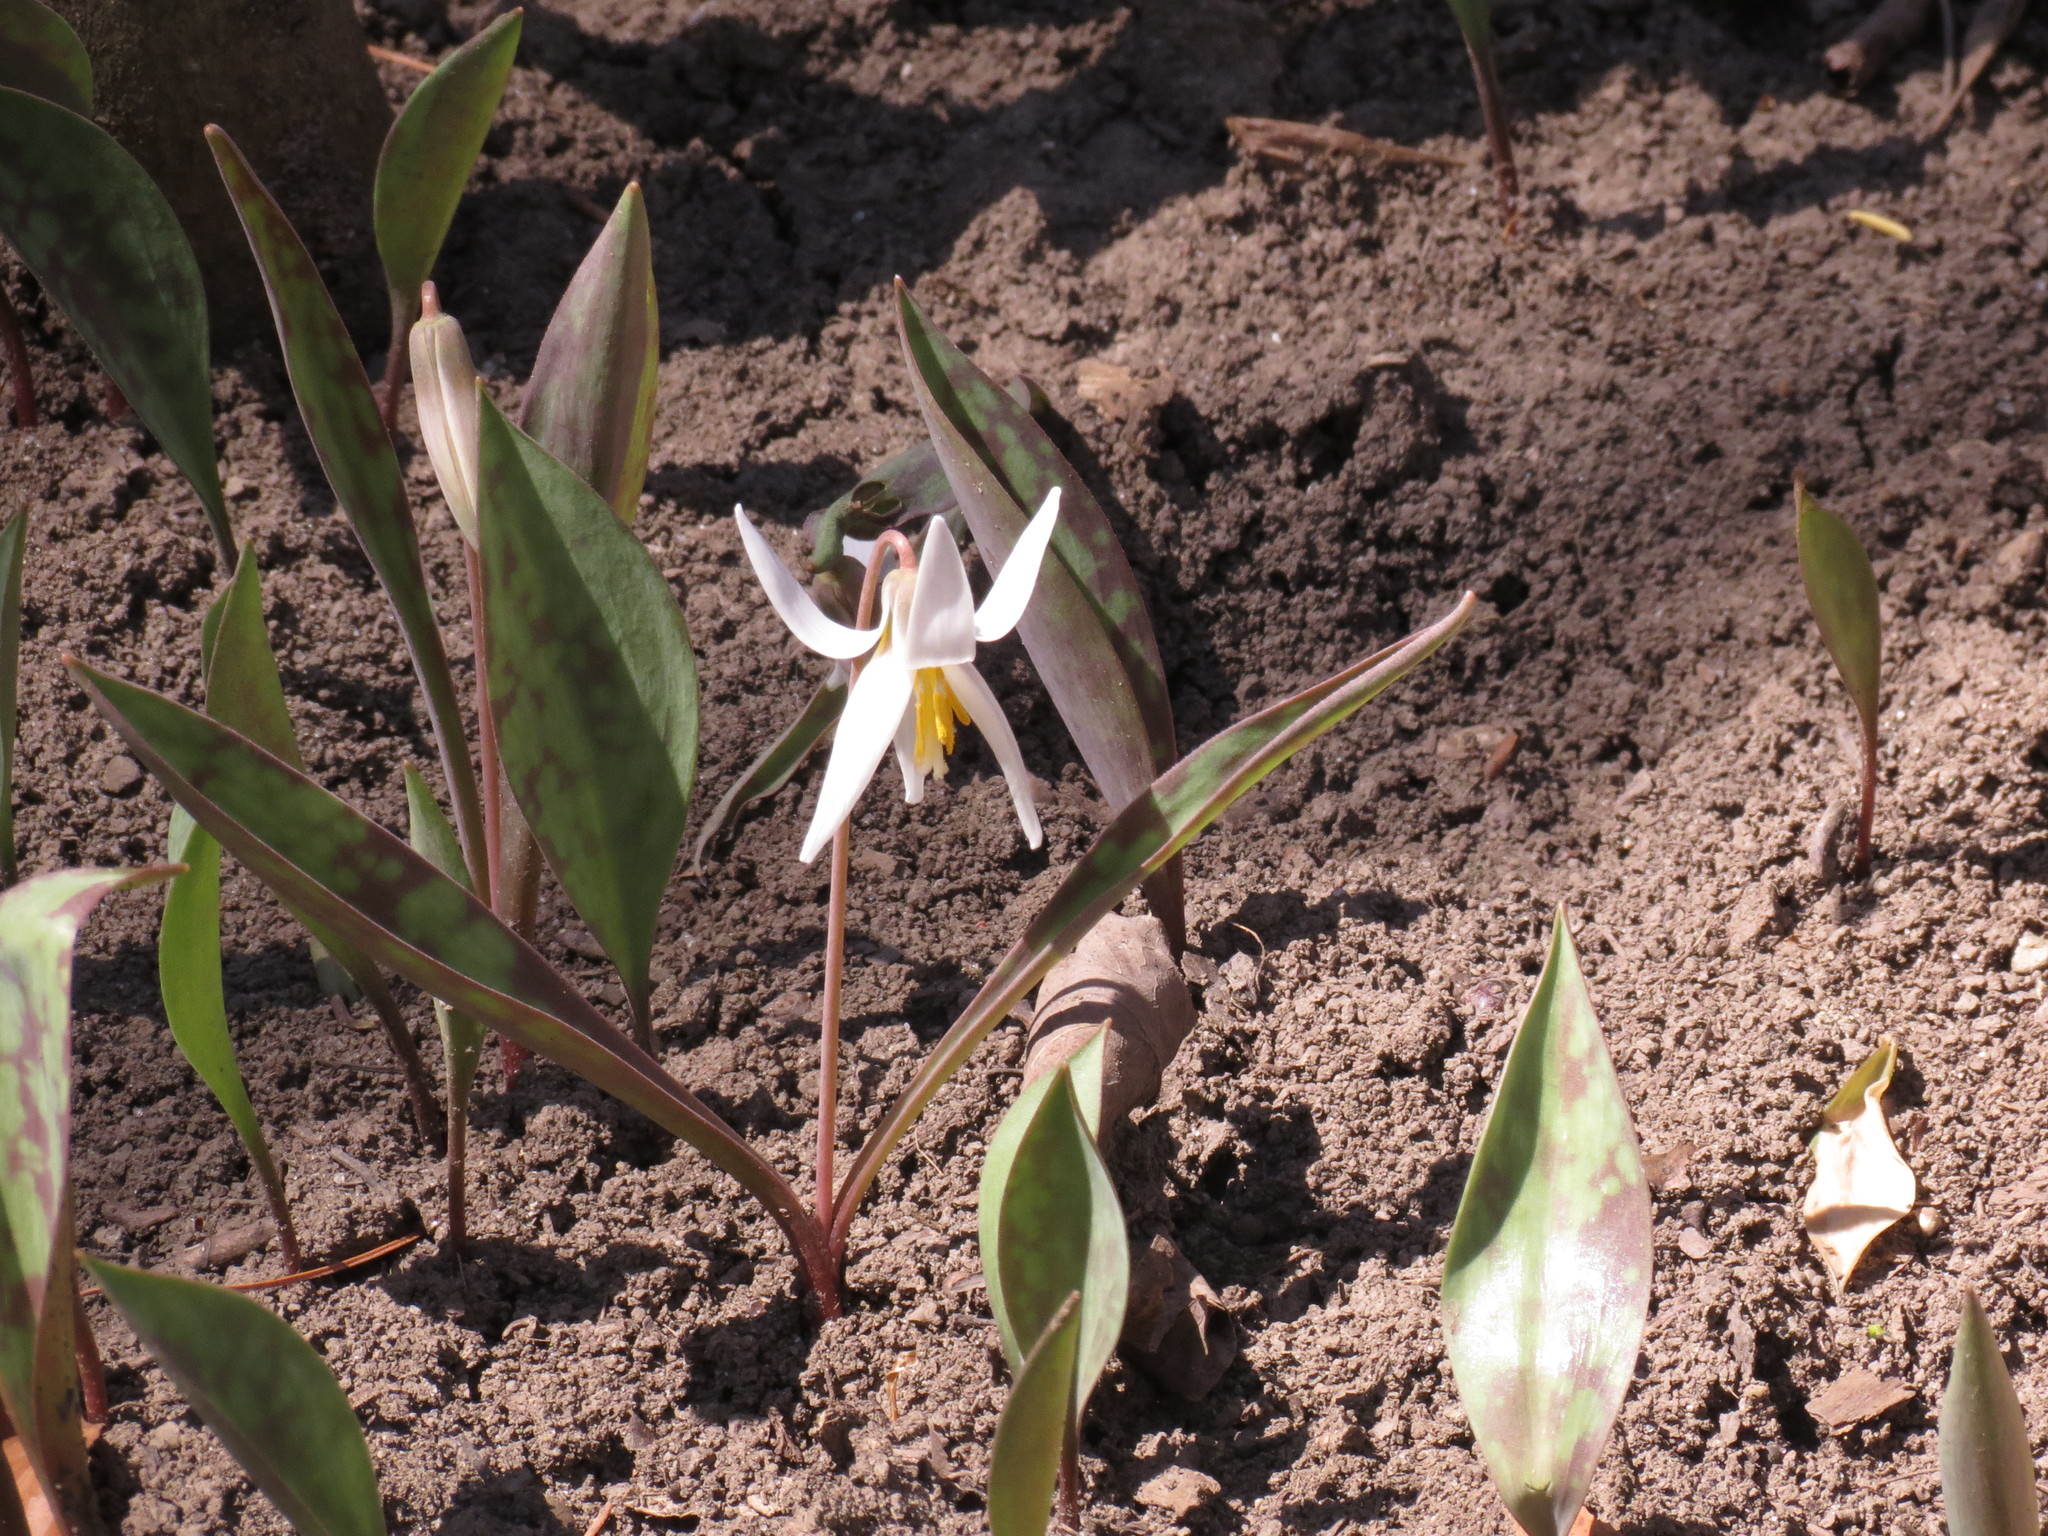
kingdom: Plantae
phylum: Tracheophyta
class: Liliopsida
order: Liliales
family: Liliaceae
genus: Erythronium
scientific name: Erythronium albidum
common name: White trout-lily
